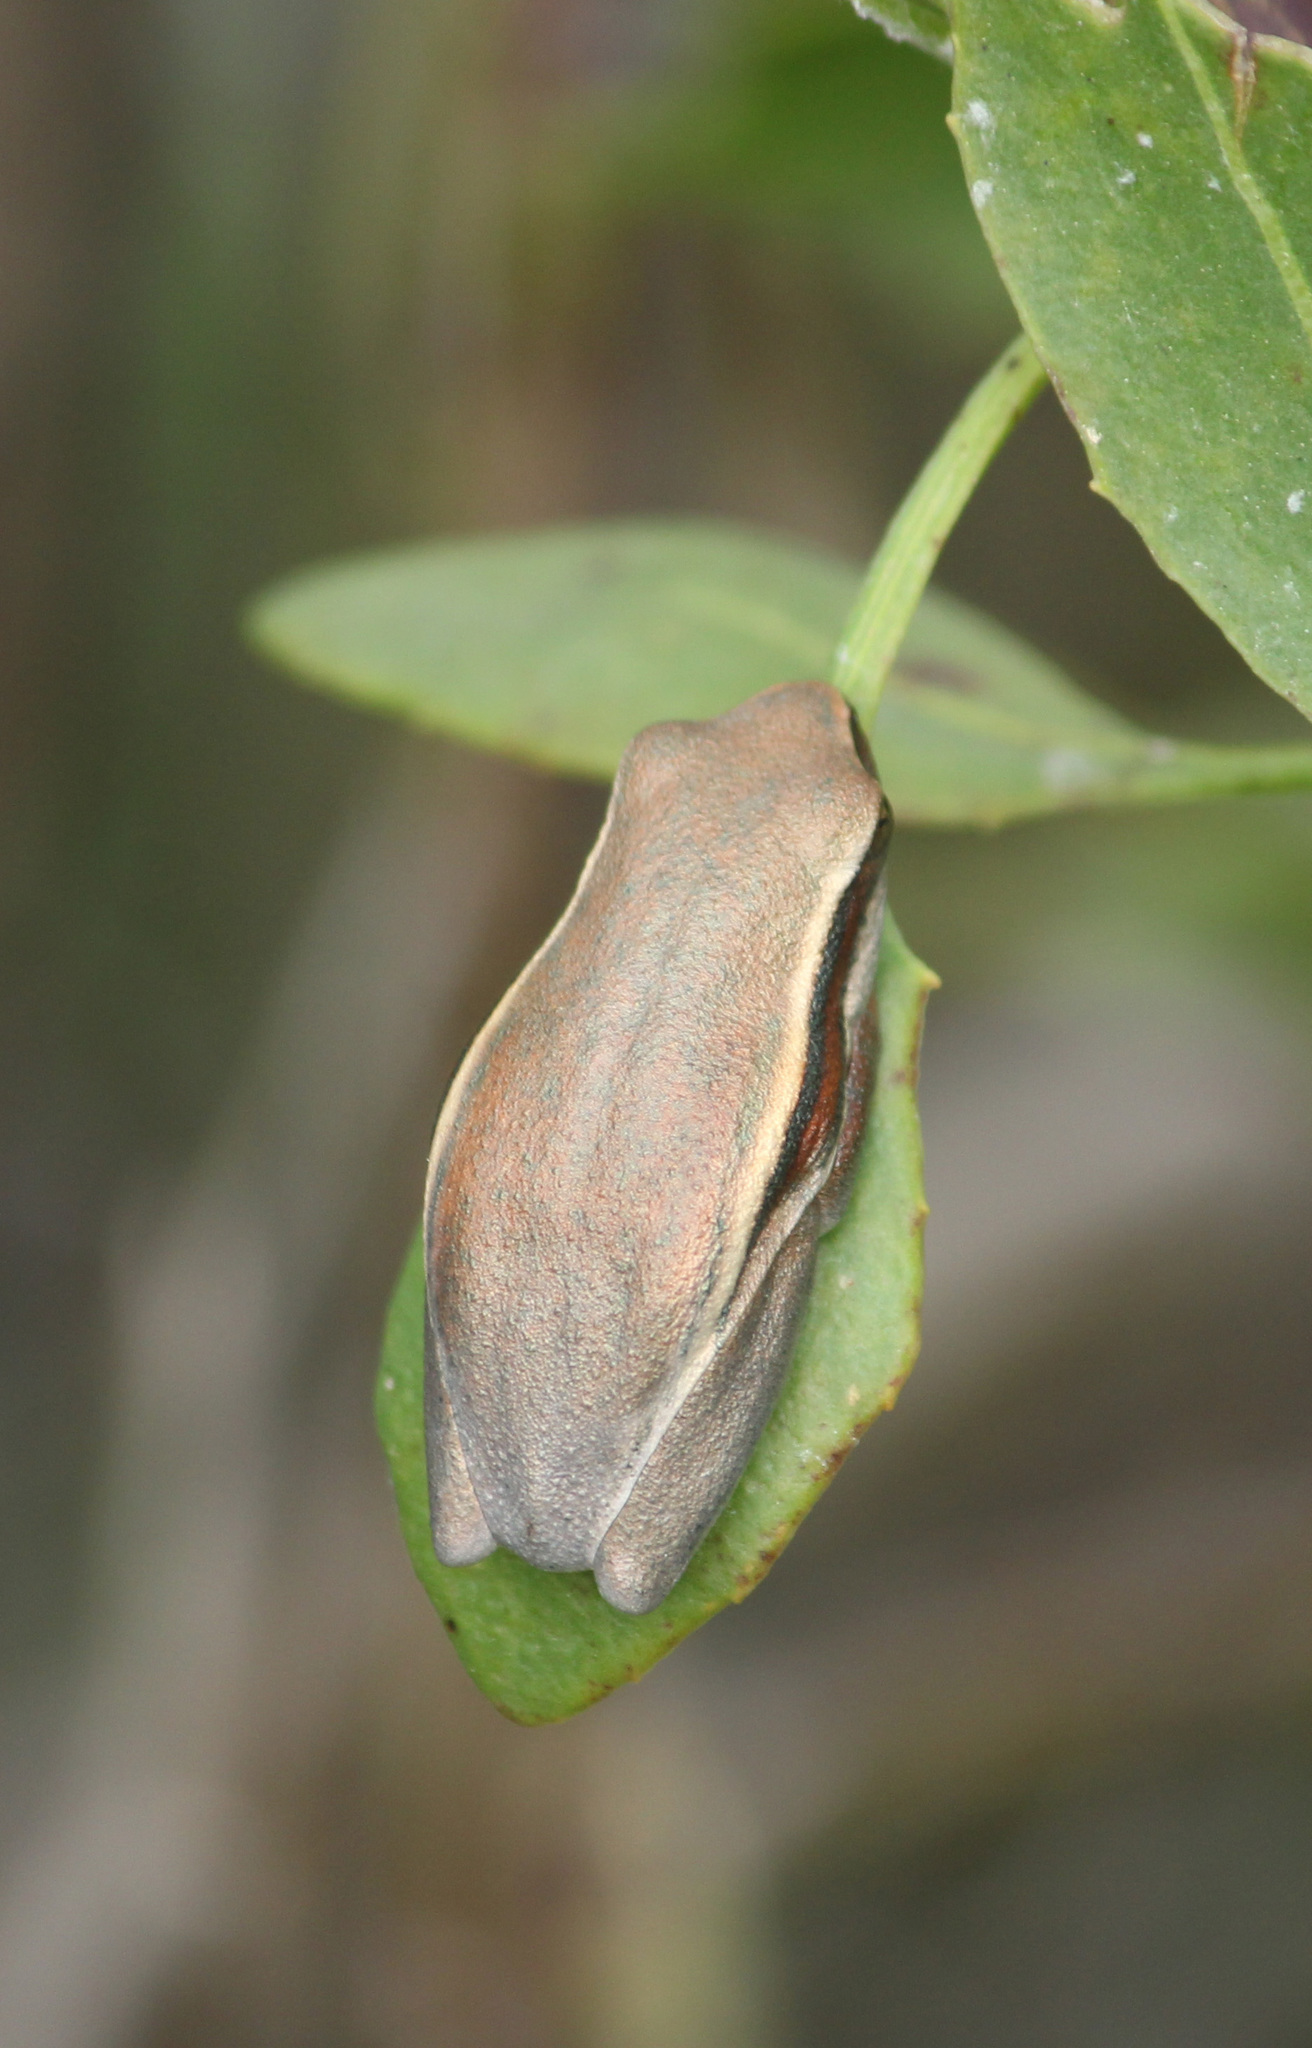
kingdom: Animalia
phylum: Chordata
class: Amphibia
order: Anura
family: Hyperoliidae
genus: Hyperolius
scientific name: Hyperolius horstockii
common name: Arum lily frog
